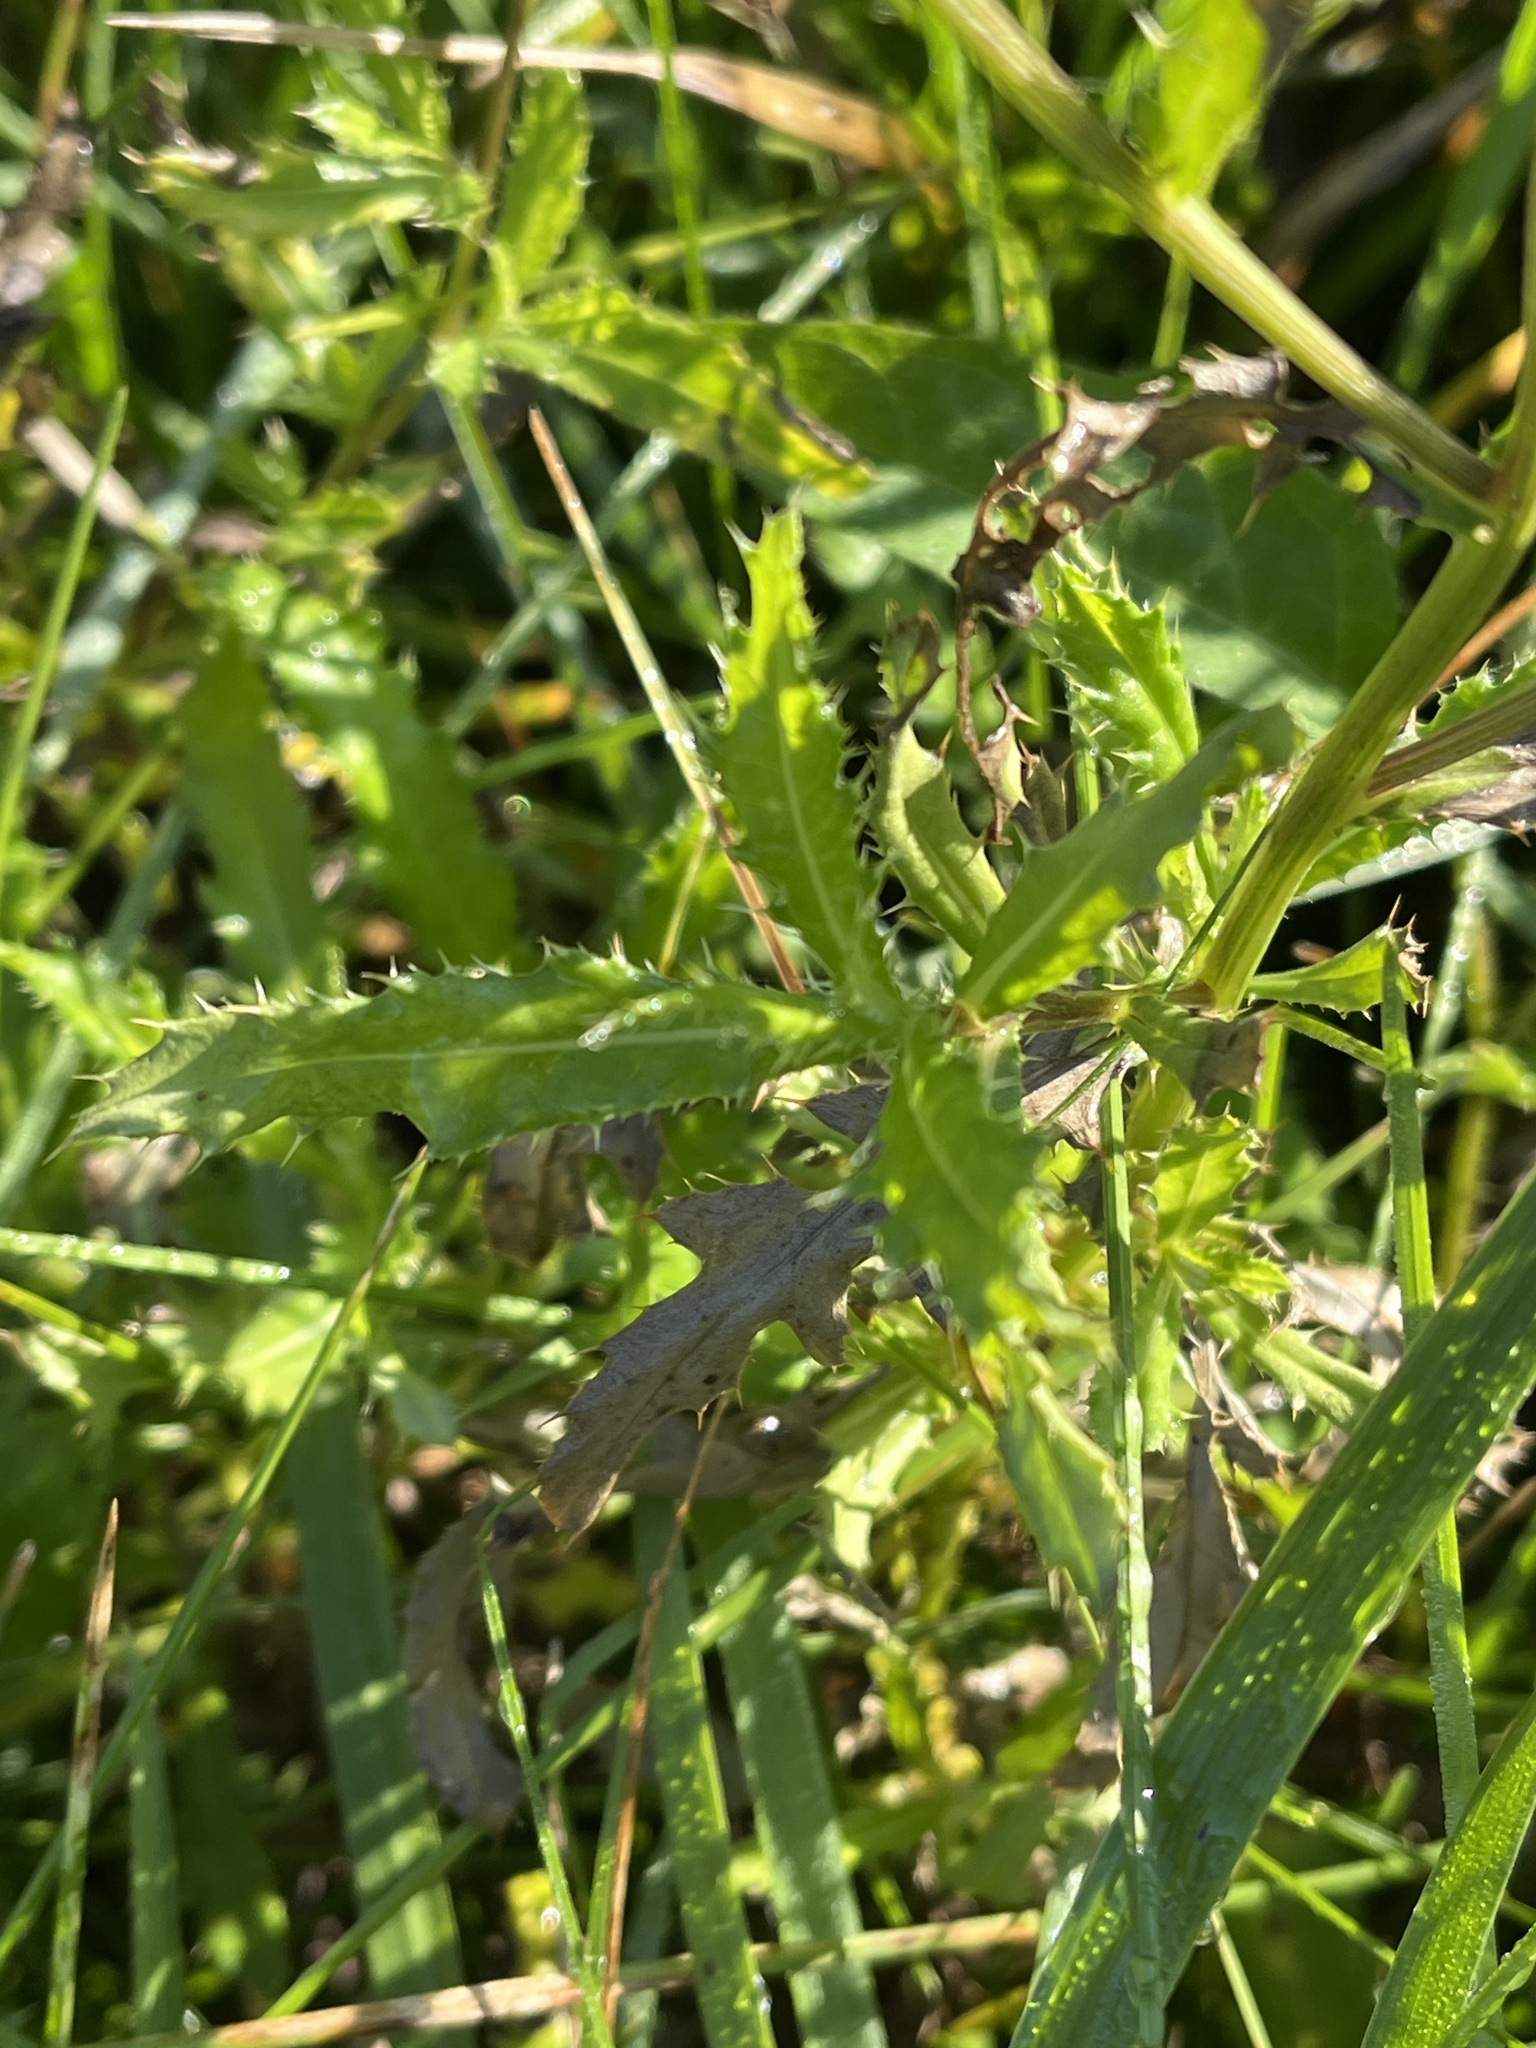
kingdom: Plantae
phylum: Tracheophyta
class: Magnoliopsida
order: Asterales
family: Asteraceae
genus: Cirsium
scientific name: Cirsium arvense
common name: Creeping thistle
